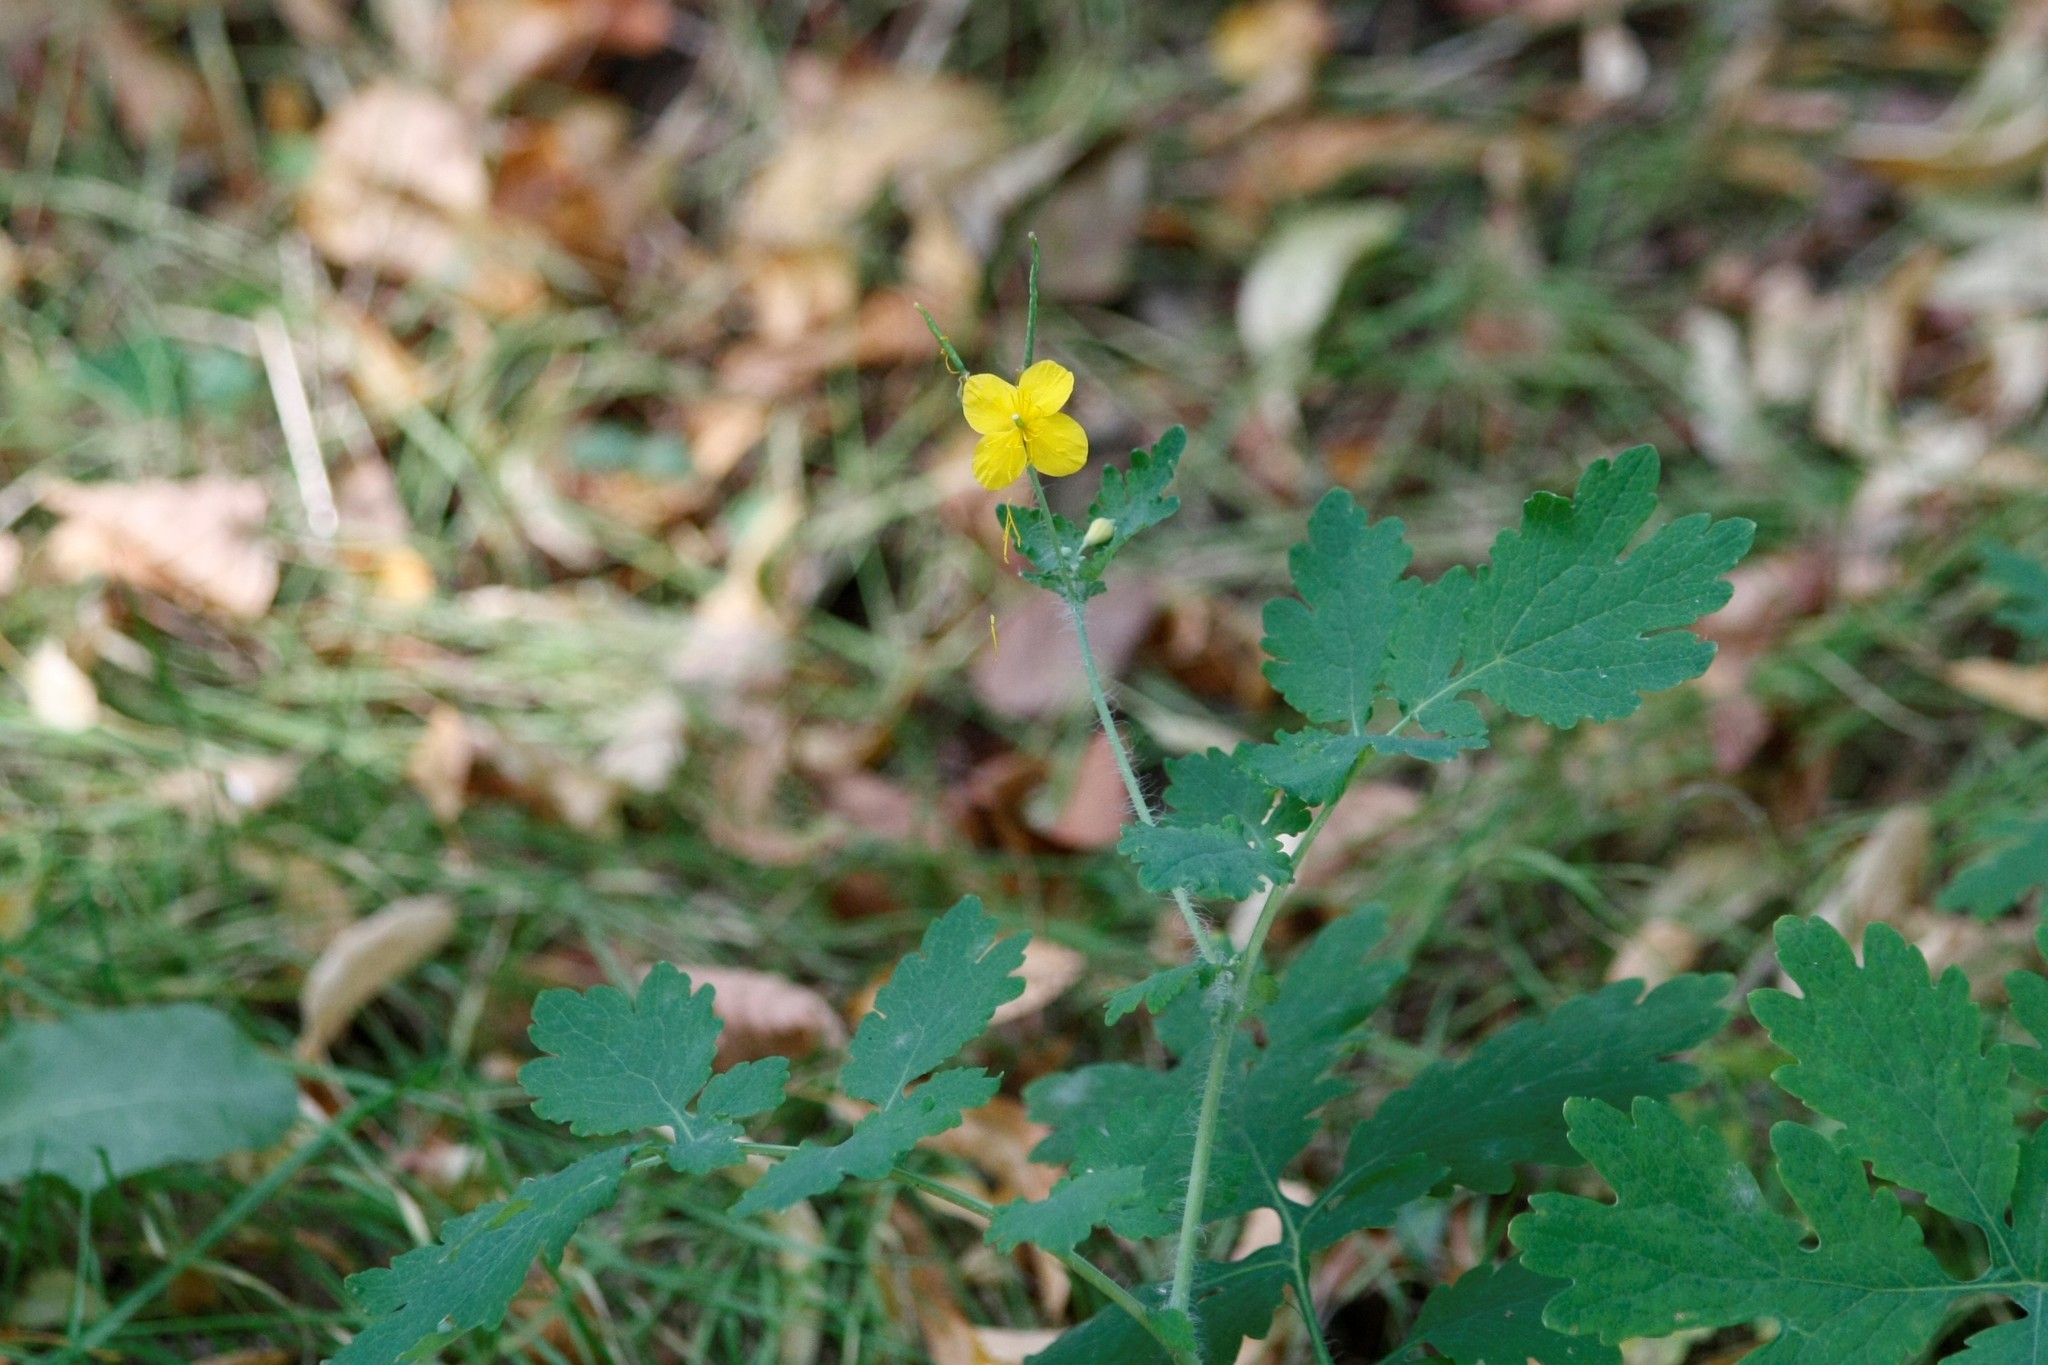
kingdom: Plantae
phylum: Tracheophyta
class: Magnoliopsida
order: Ranunculales
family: Papaveraceae
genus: Chelidonium
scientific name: Chelidonium majus
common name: Greater celandine
